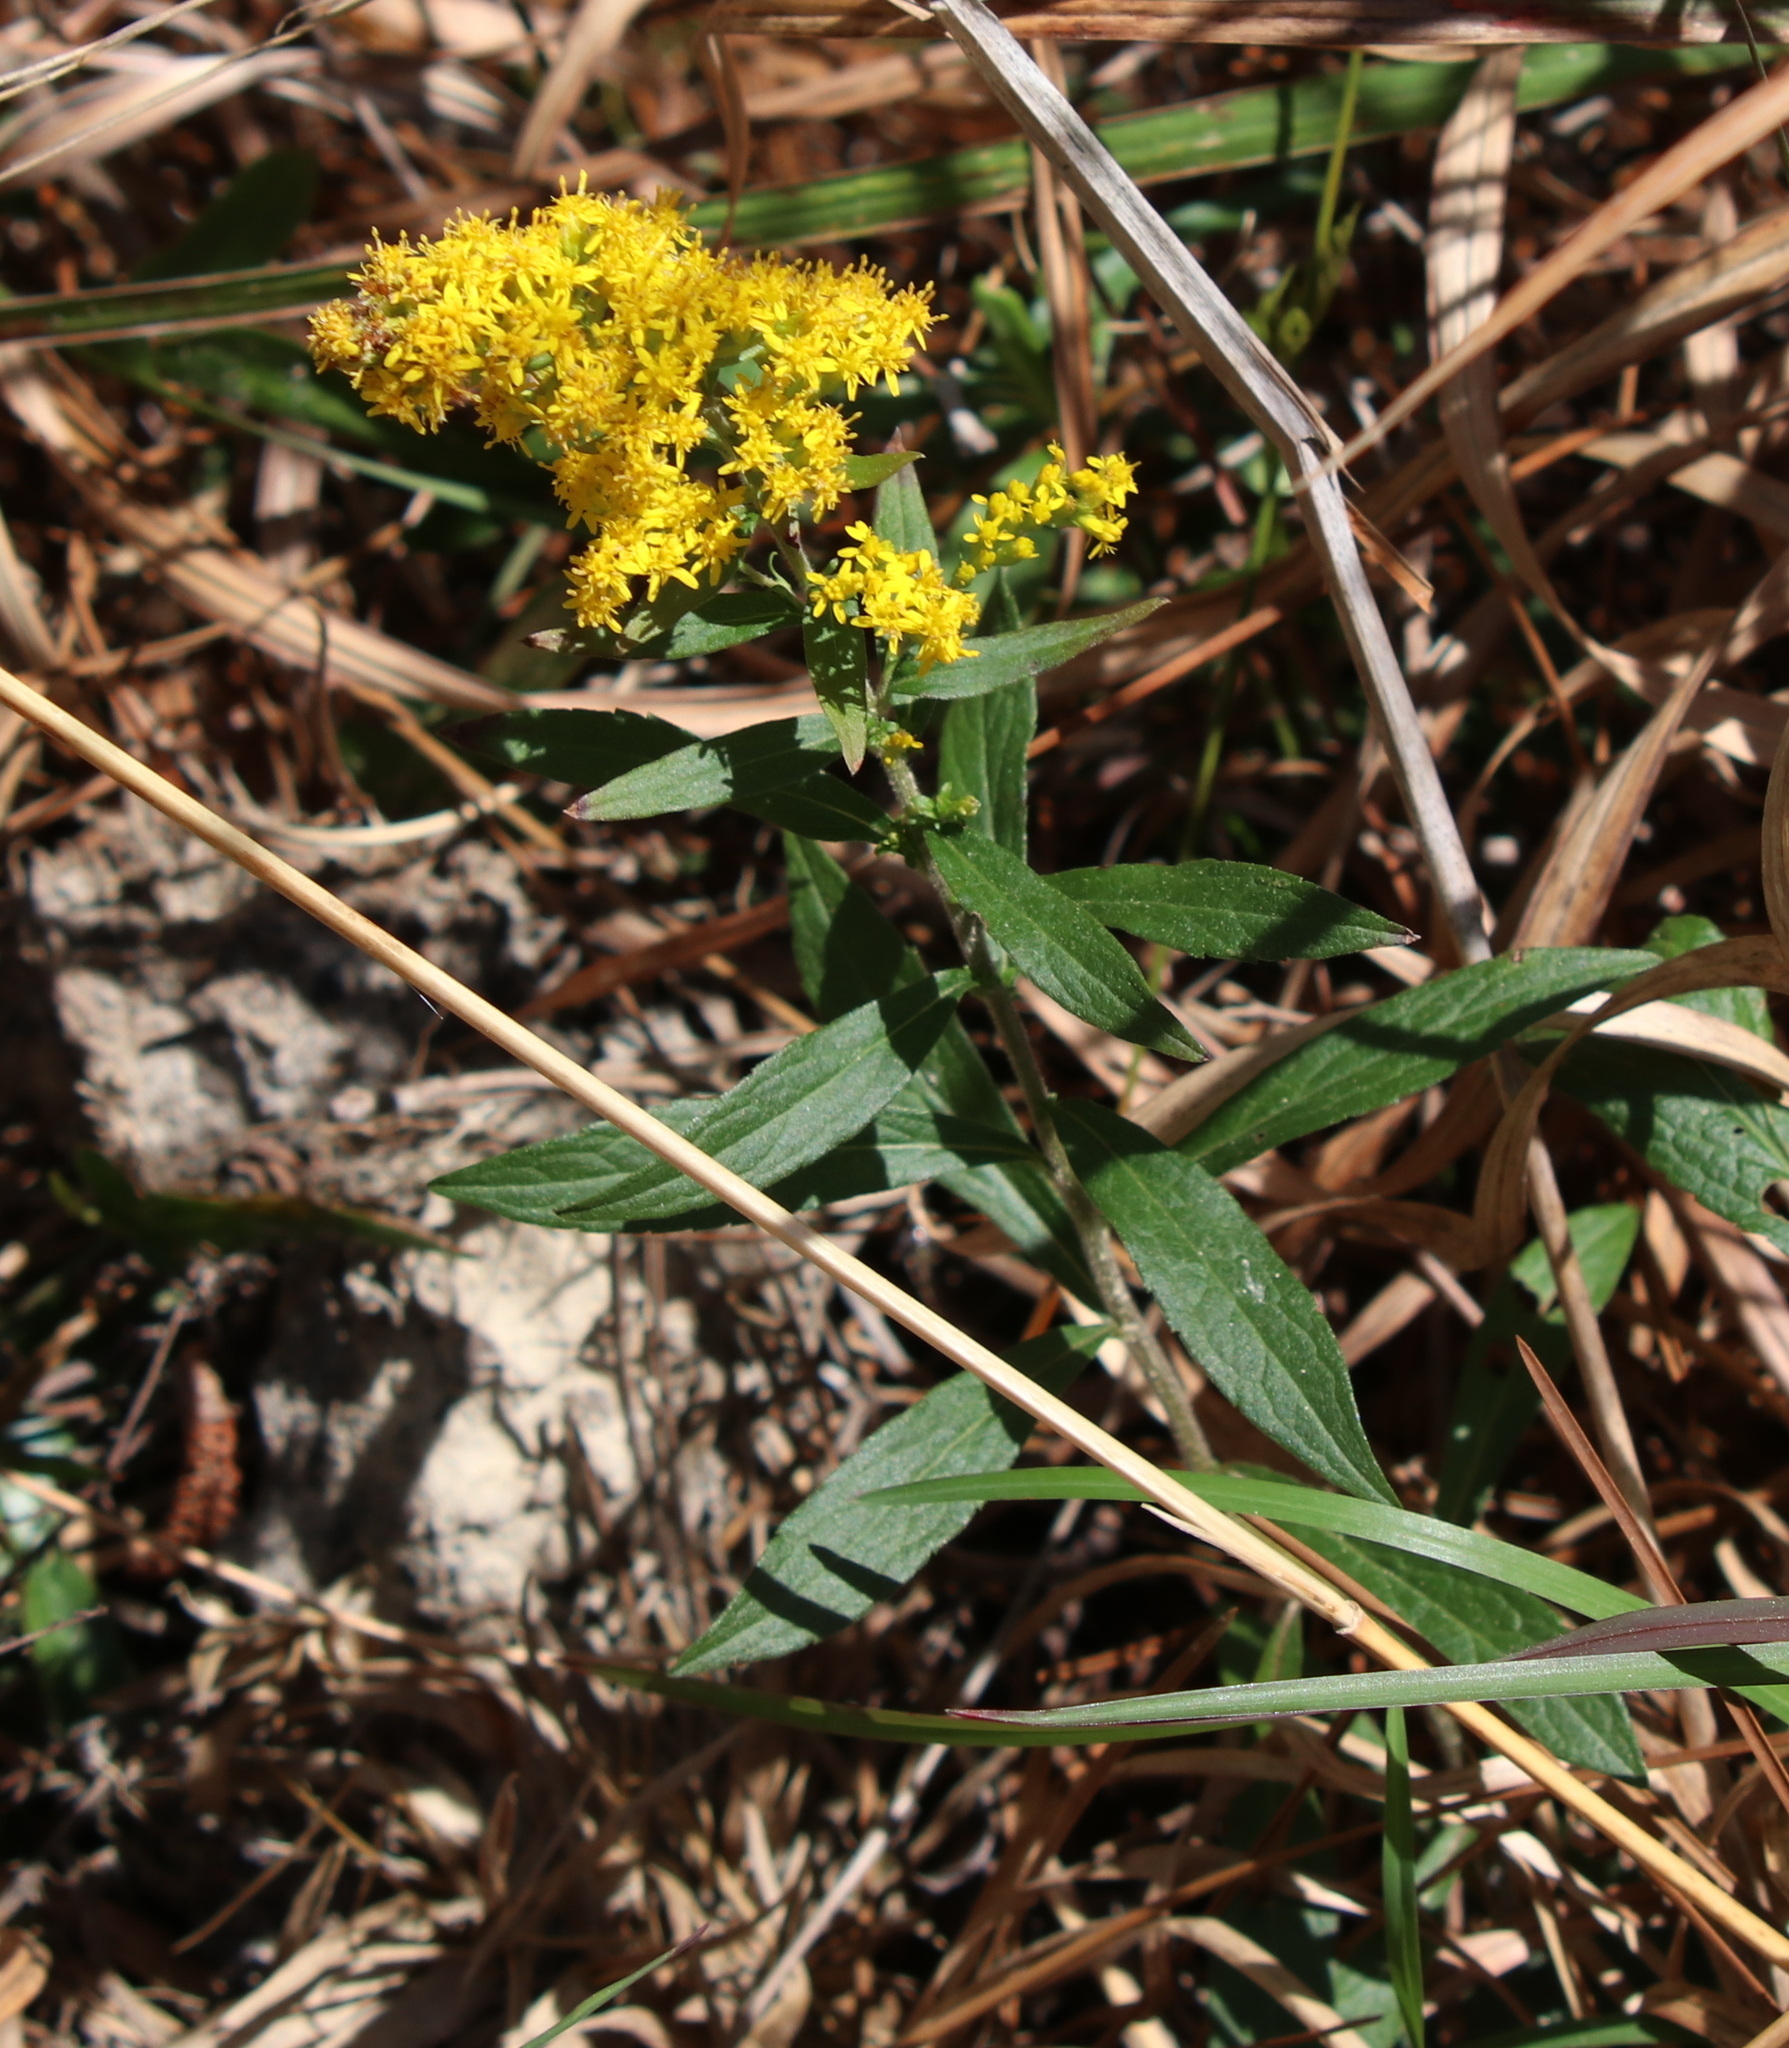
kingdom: Plantae
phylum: Tracheophyta
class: Magnoliopsida
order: Asterales
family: Asteraceae
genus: Solidago
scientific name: Solidago altissima
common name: Late goldenrod
